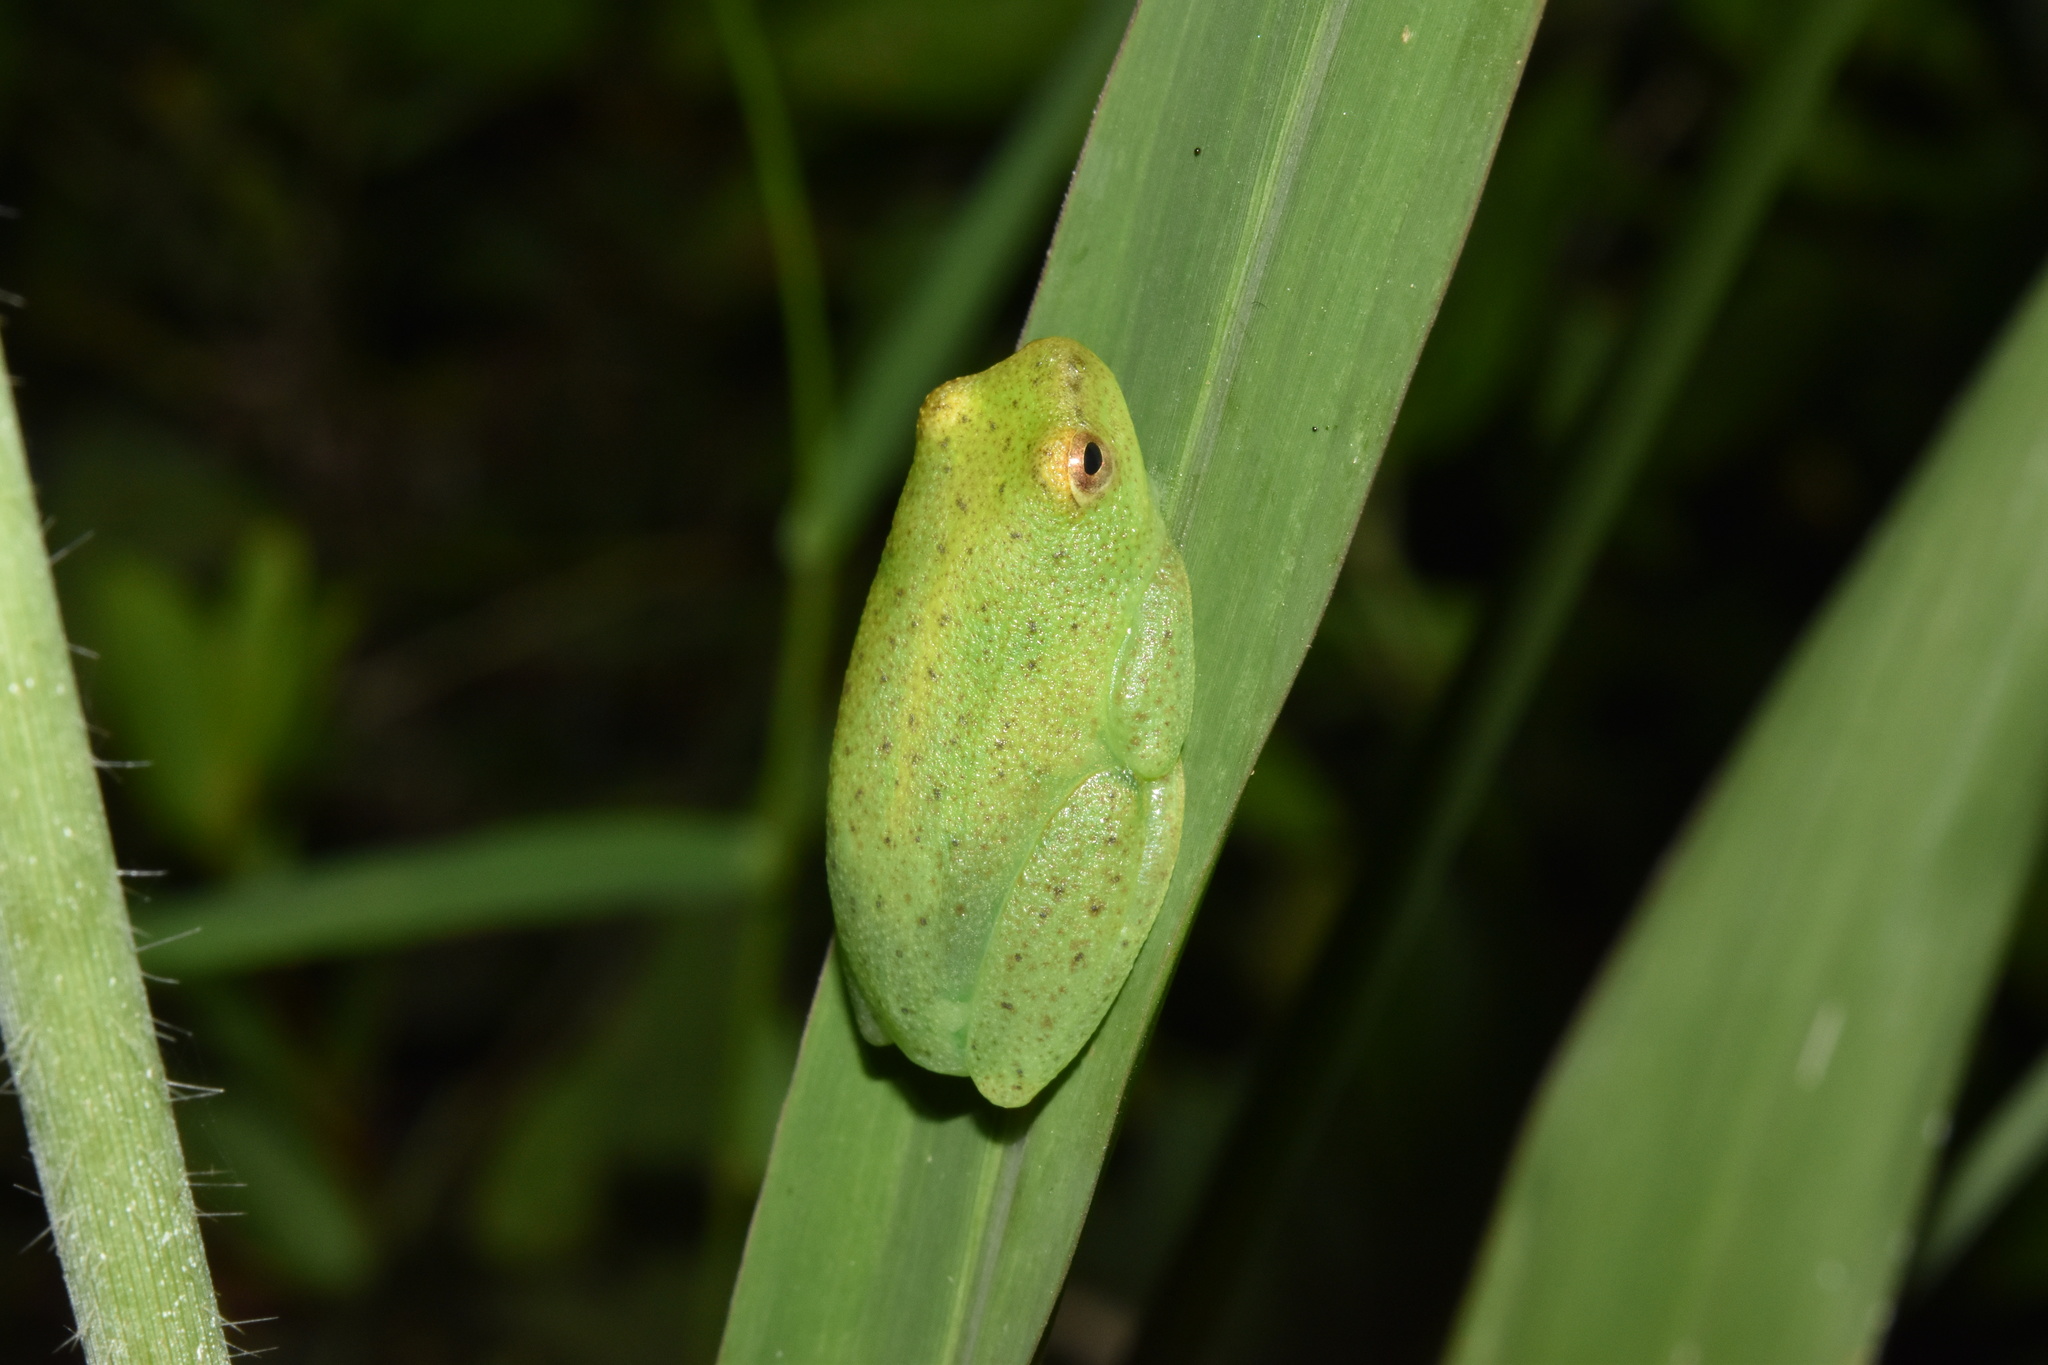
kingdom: Animalia
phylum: Chordata
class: Amphibia
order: Anura
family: Hyperoliidae
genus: Hyperolius
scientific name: Hyperolius pusillus
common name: Water lily reed frog
